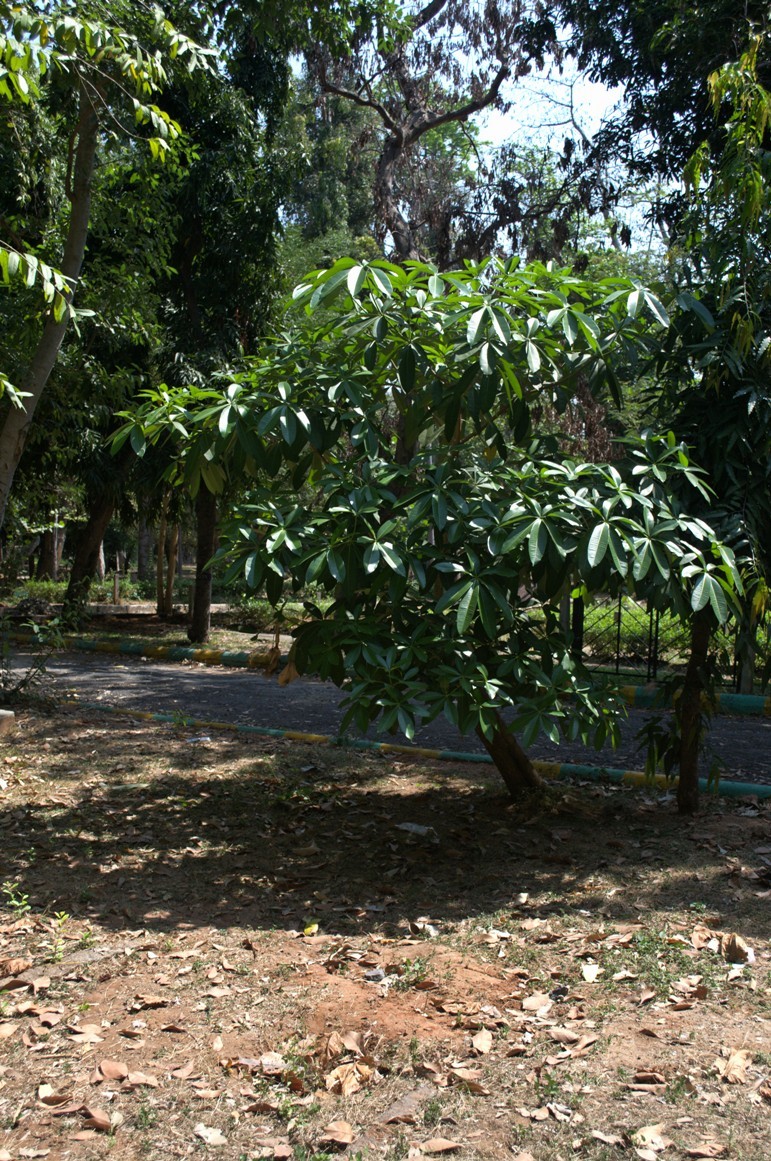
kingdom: Plantae
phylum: Tracheophyta
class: Magnoliopsida
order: Gentianales
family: Apocynaceae
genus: Alstonia
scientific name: Alstonia scholaris
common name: White cheesewood
